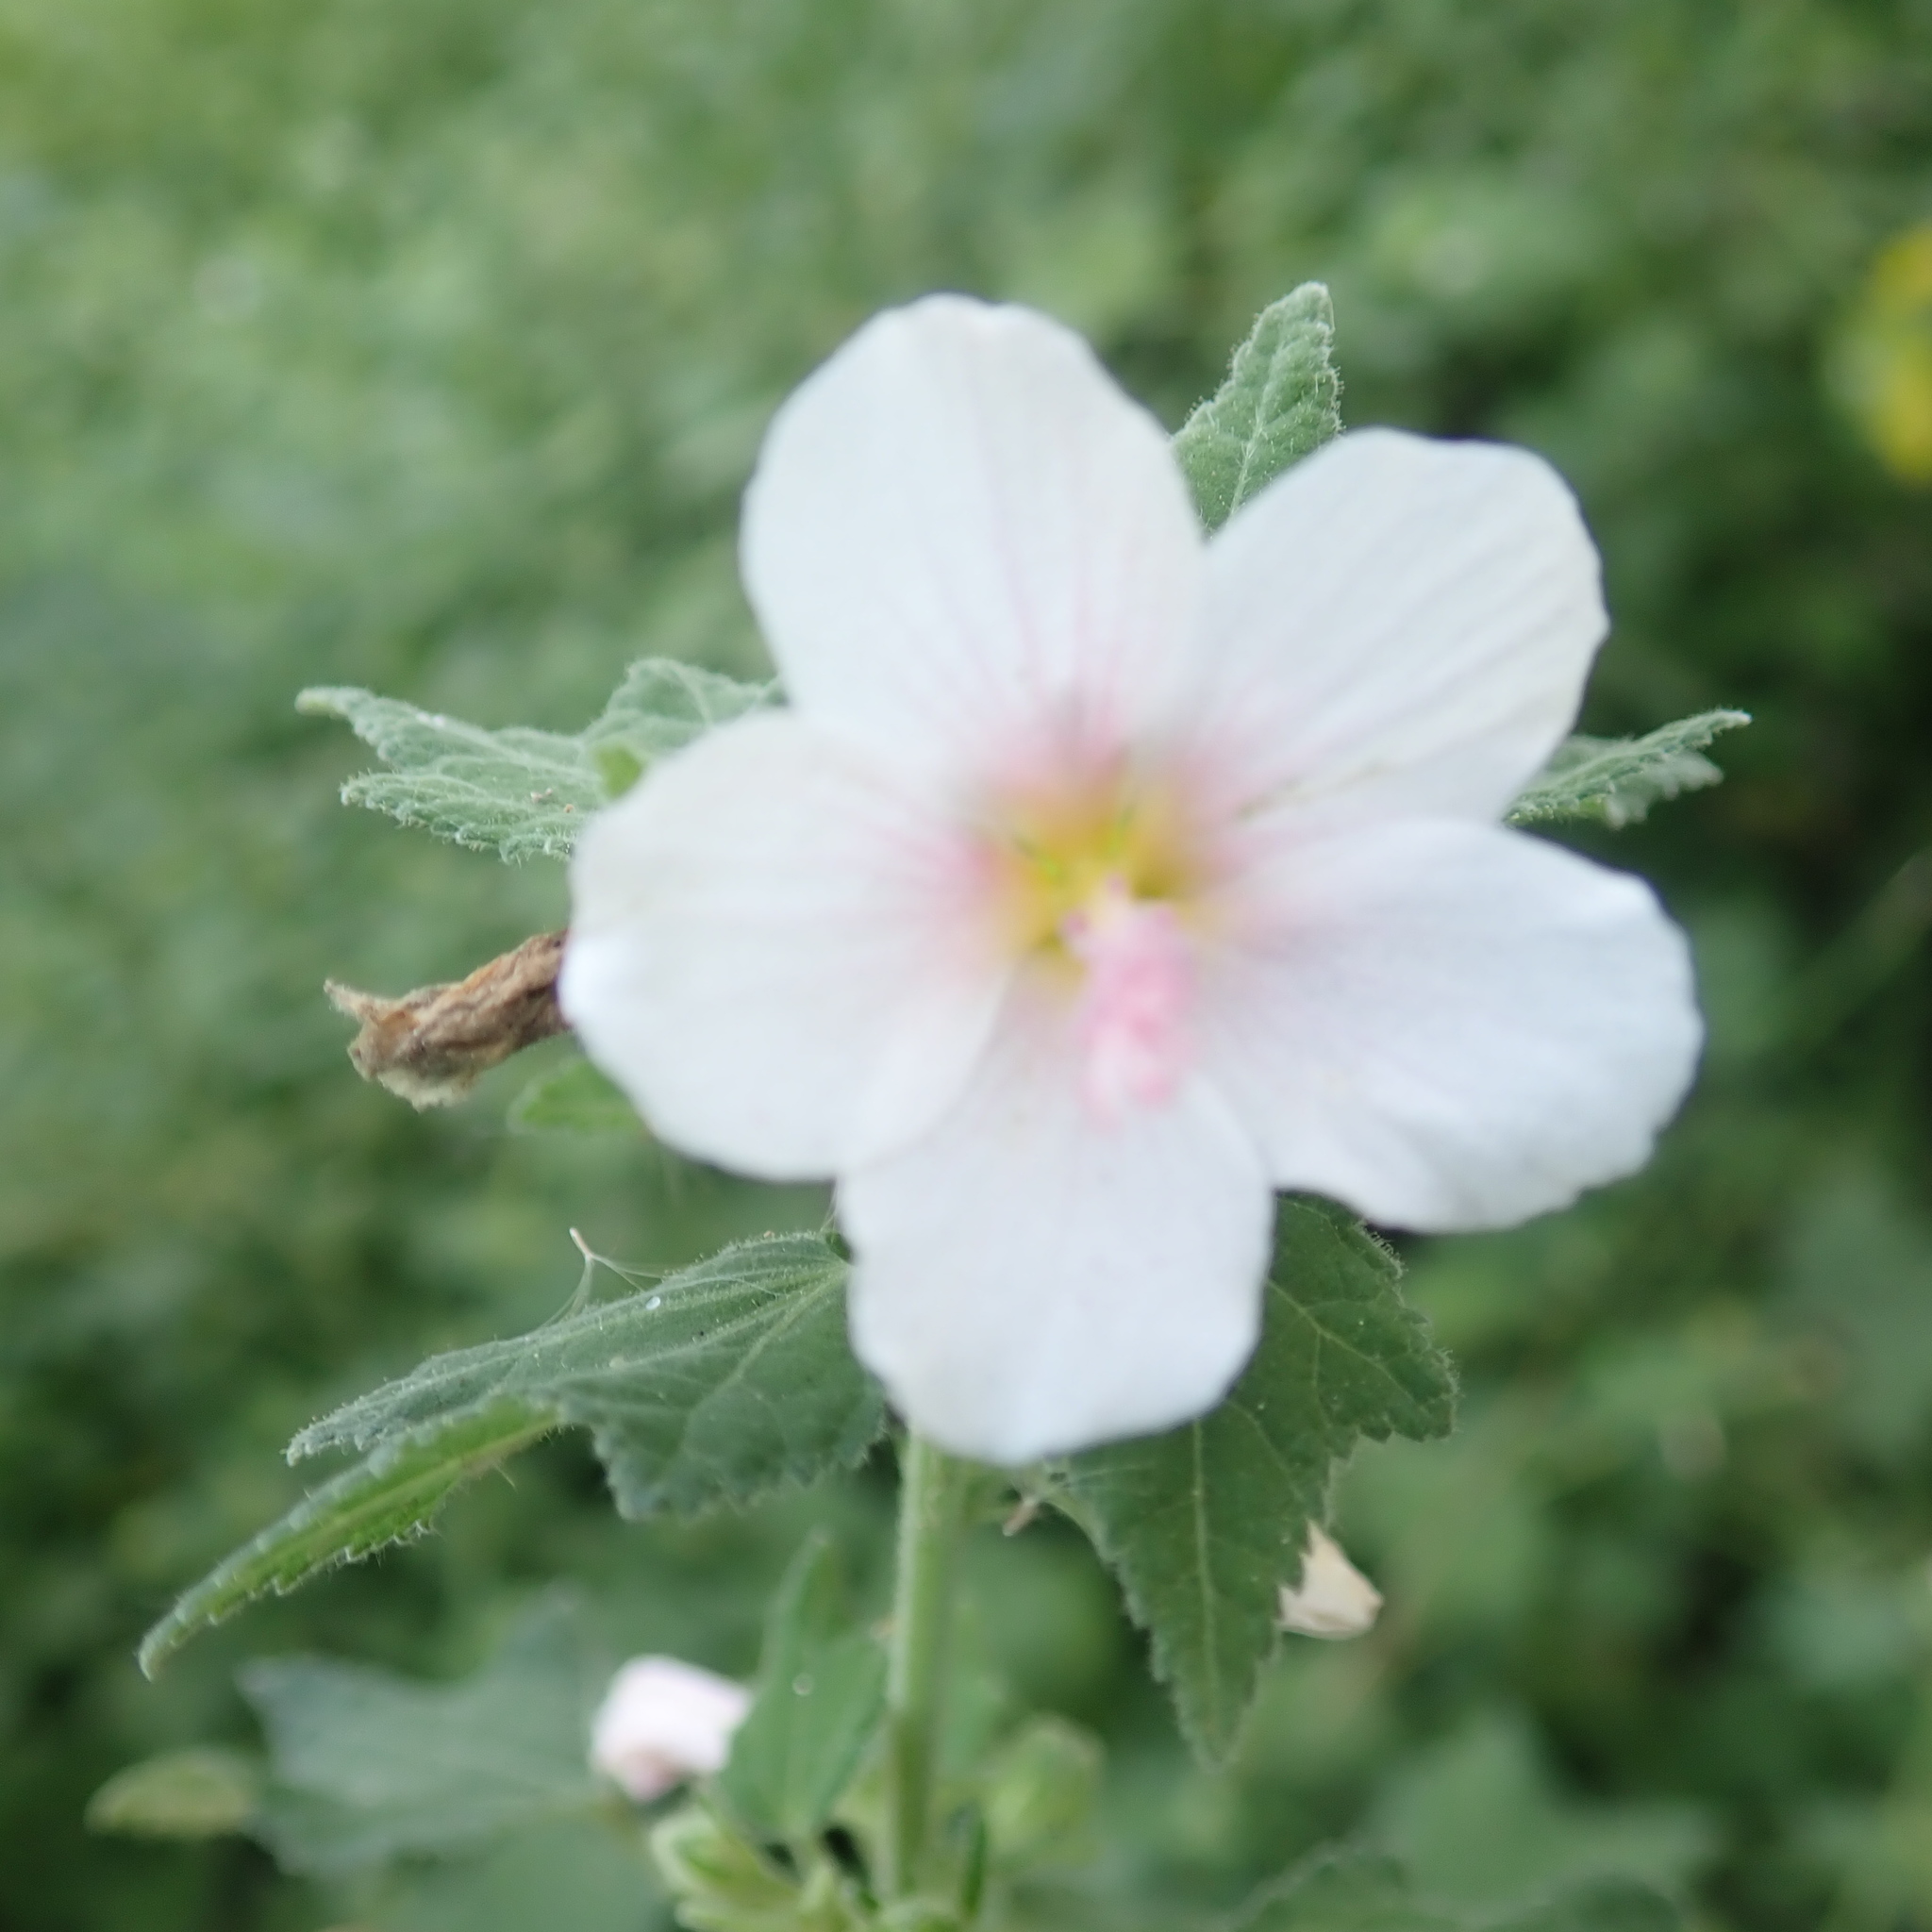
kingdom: Plantae
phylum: Tracheophyta
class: Magnoliopsida
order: Malvales
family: Malvaceae
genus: Pavonia
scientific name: Pavonia columella
